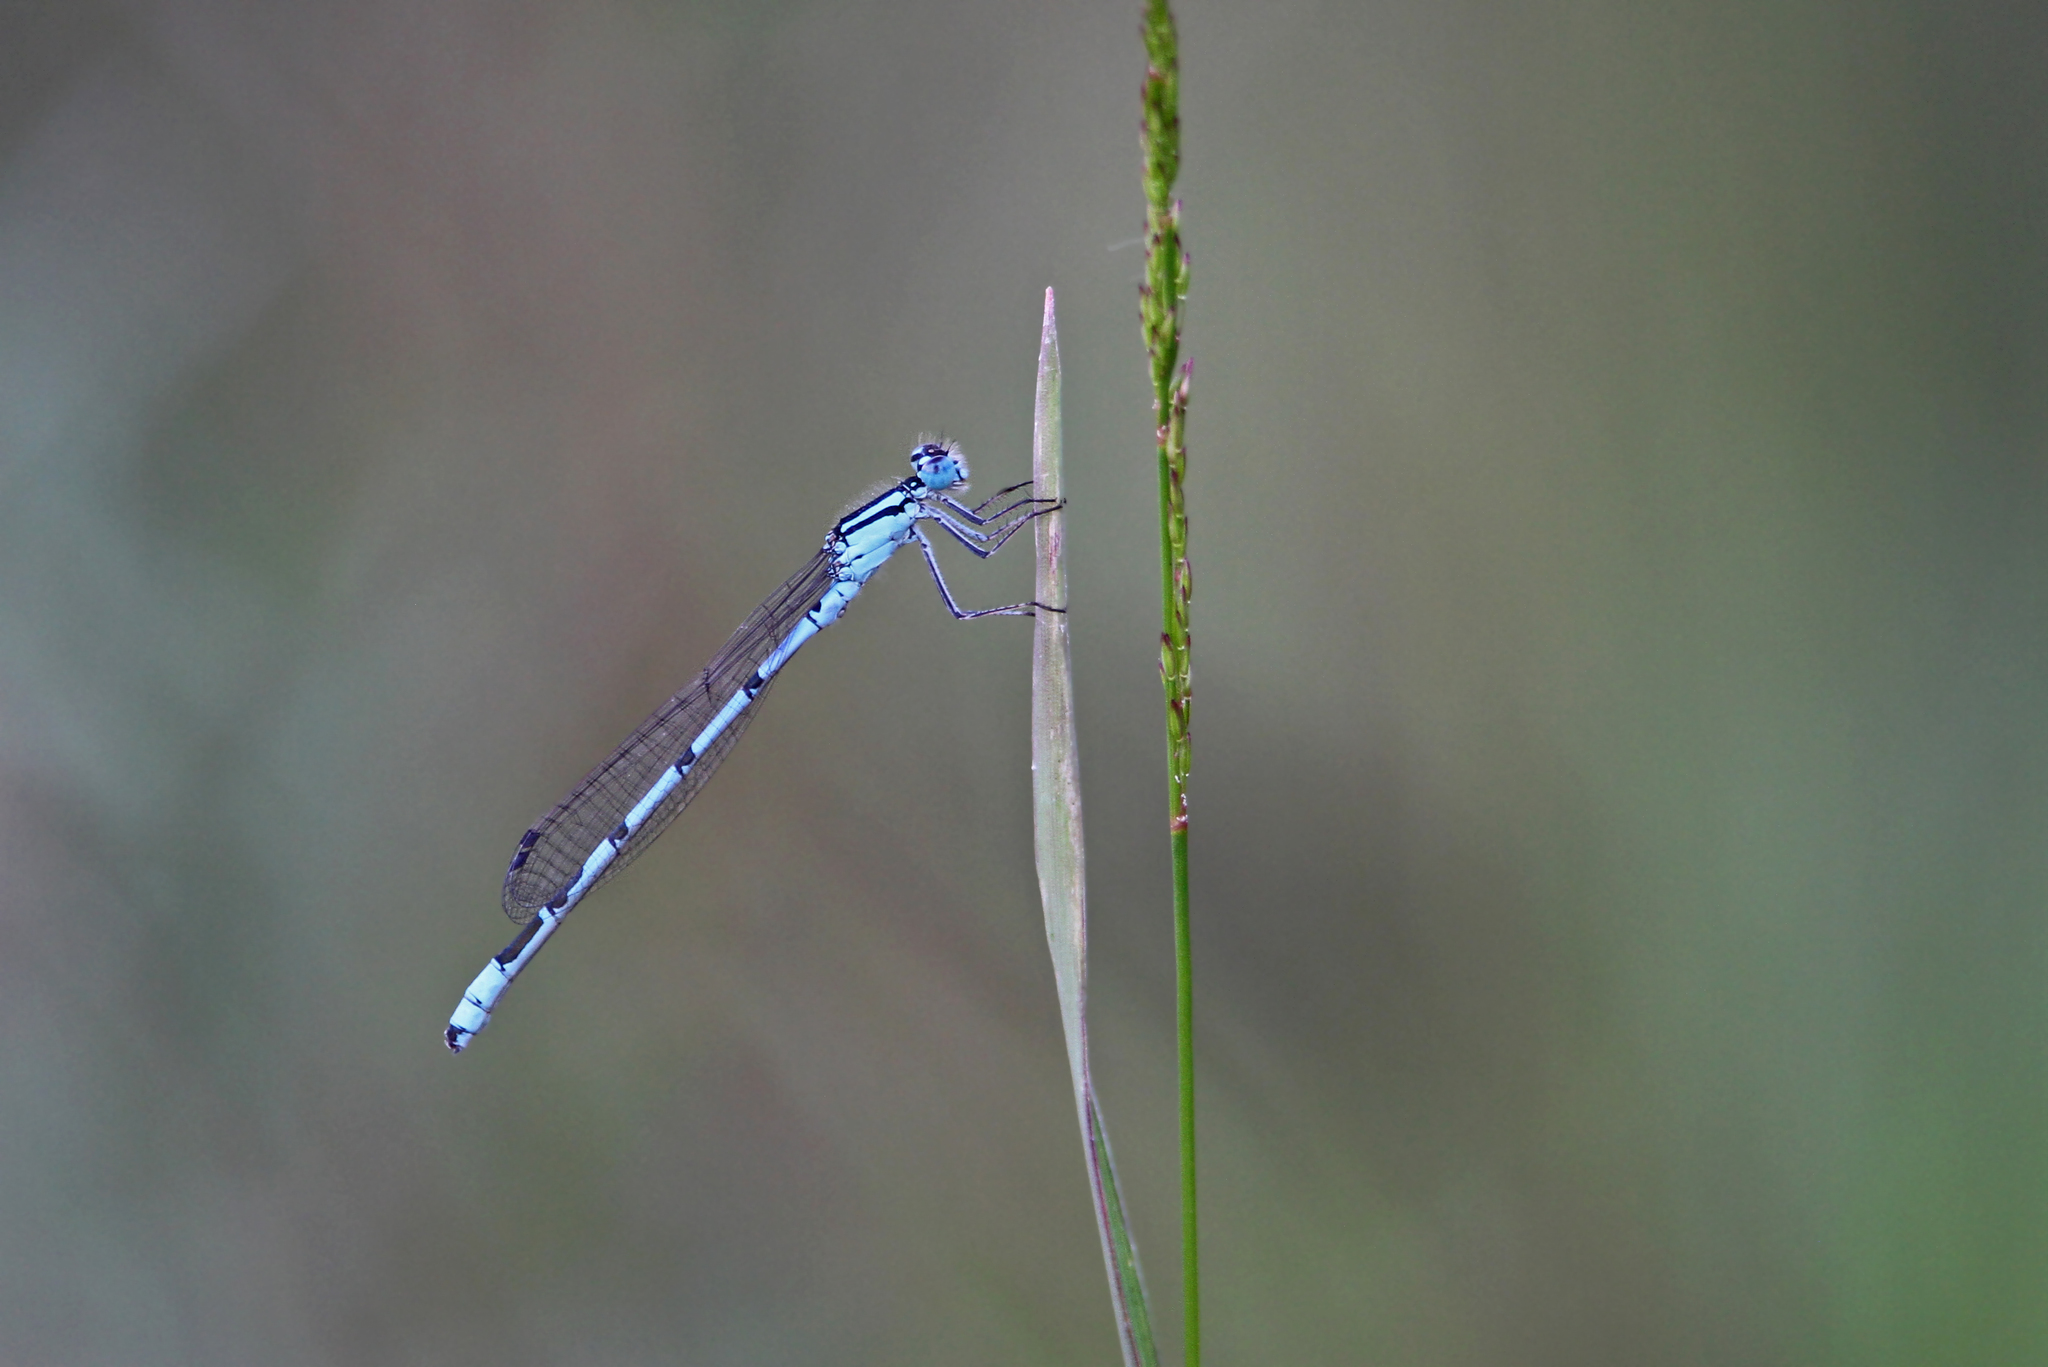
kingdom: Animalia
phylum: Arthropoda
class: Insecta
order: Odonata
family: Coenagrionidae
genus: Enallagma
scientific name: Enallagma cyathigerum
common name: Common blue damselfly
